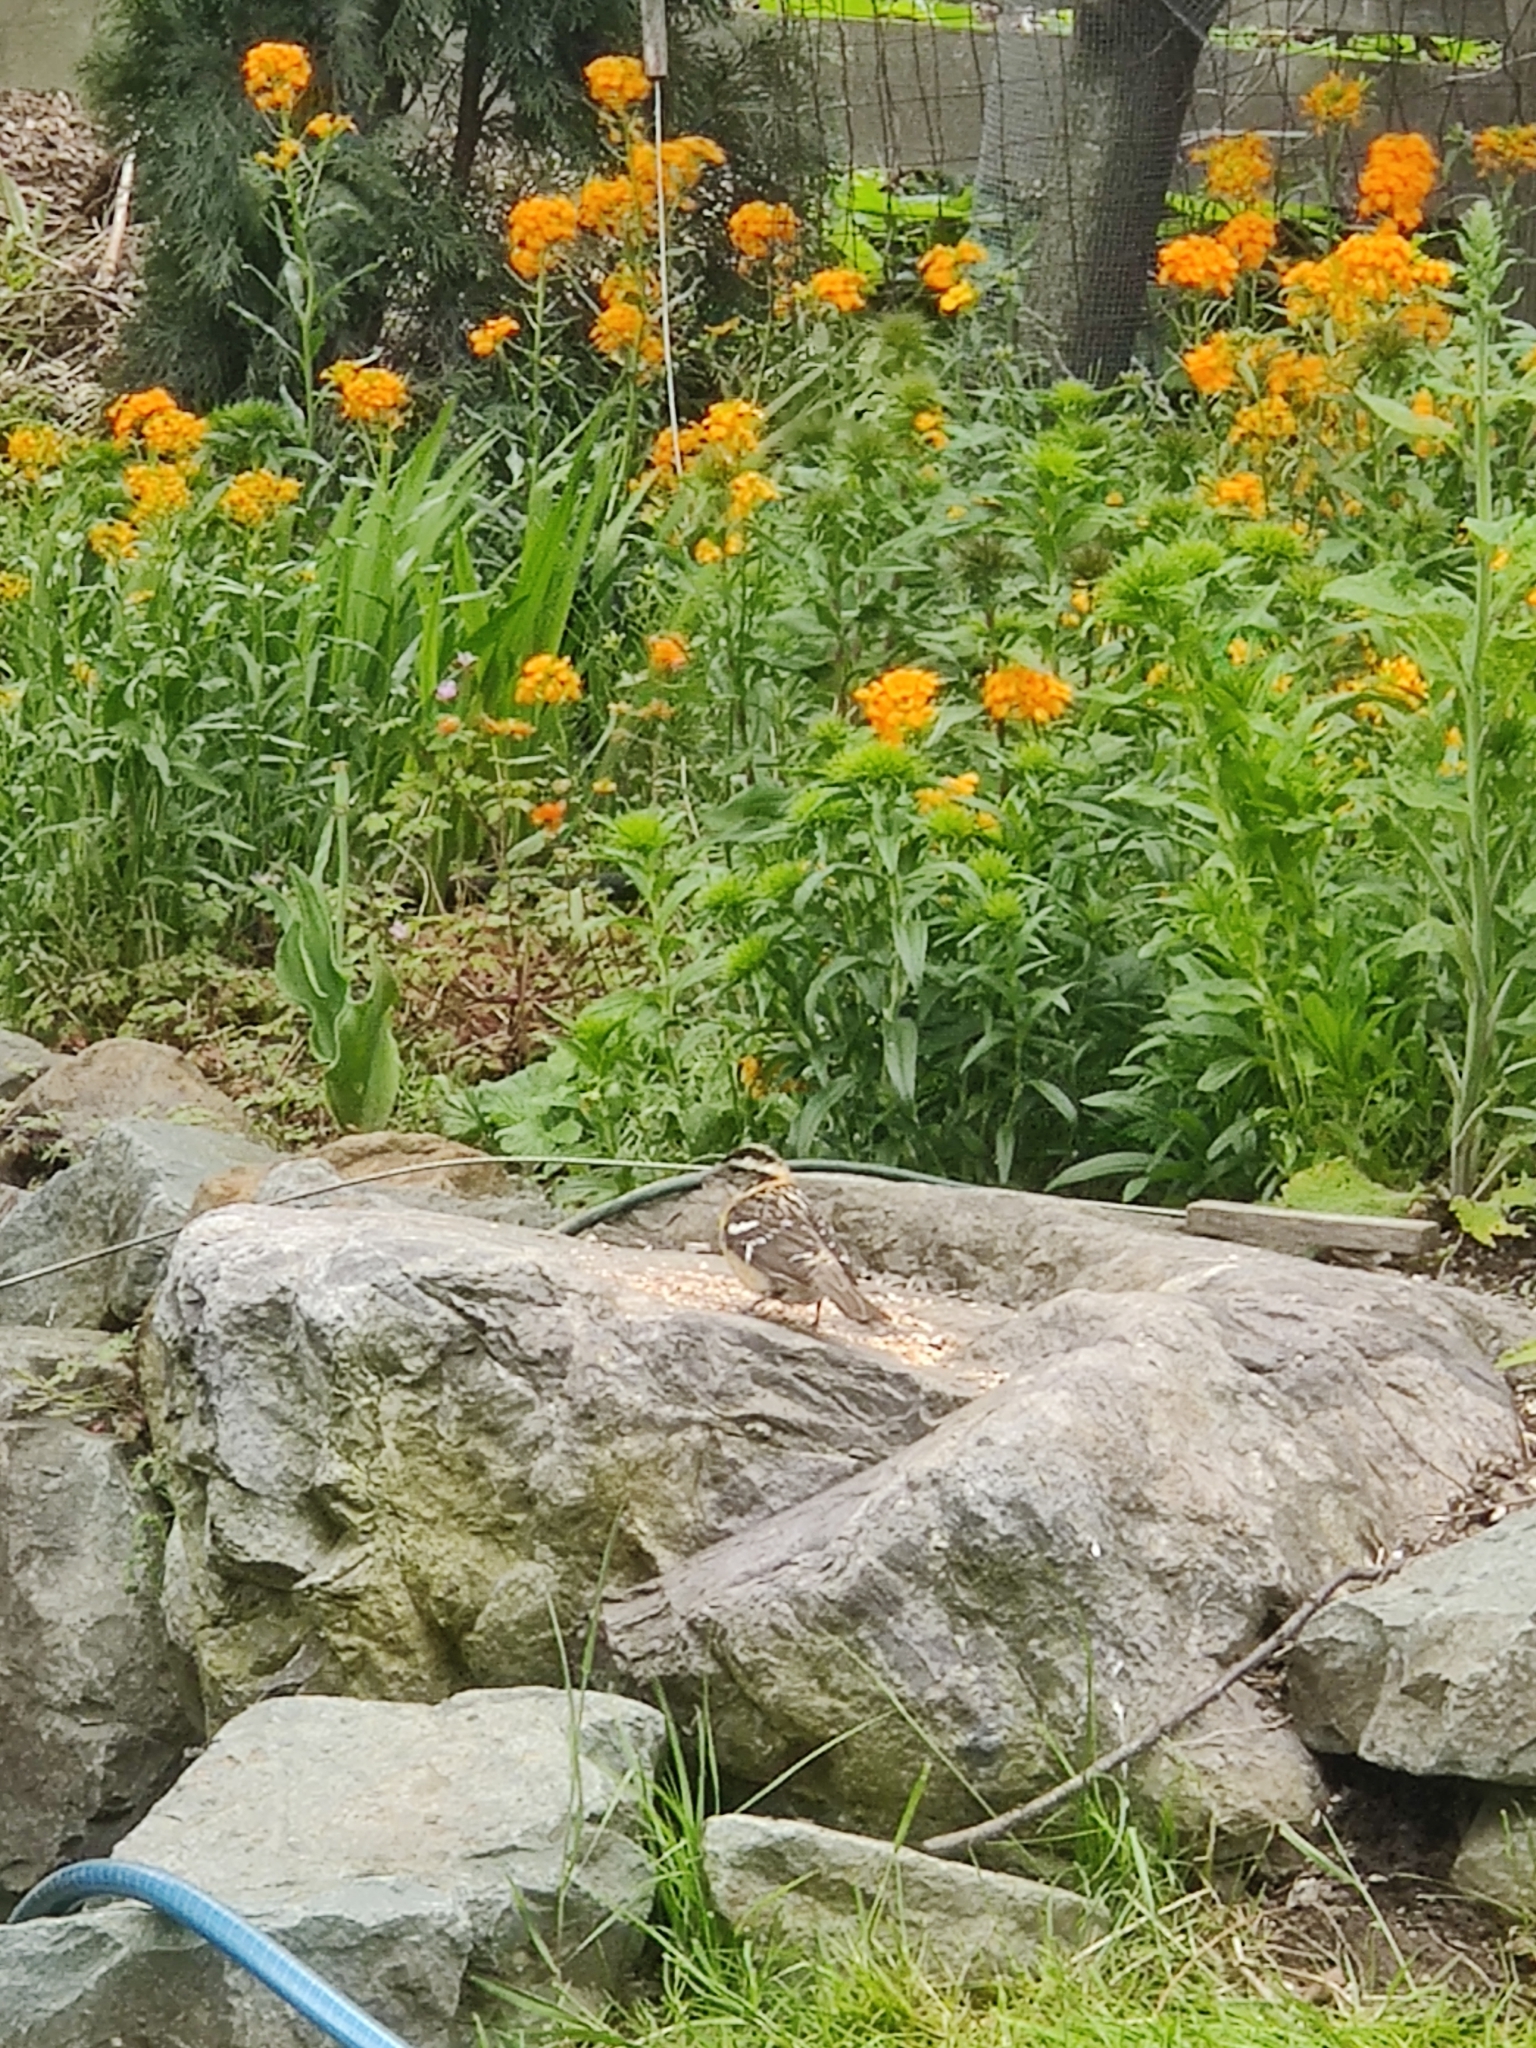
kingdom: Animalia
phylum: Chordata
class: Aves
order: Passeriformes
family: Cardinalidae
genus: Pheucticus
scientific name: Pheucticus melanocephalus
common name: Black-headed grosbeak
